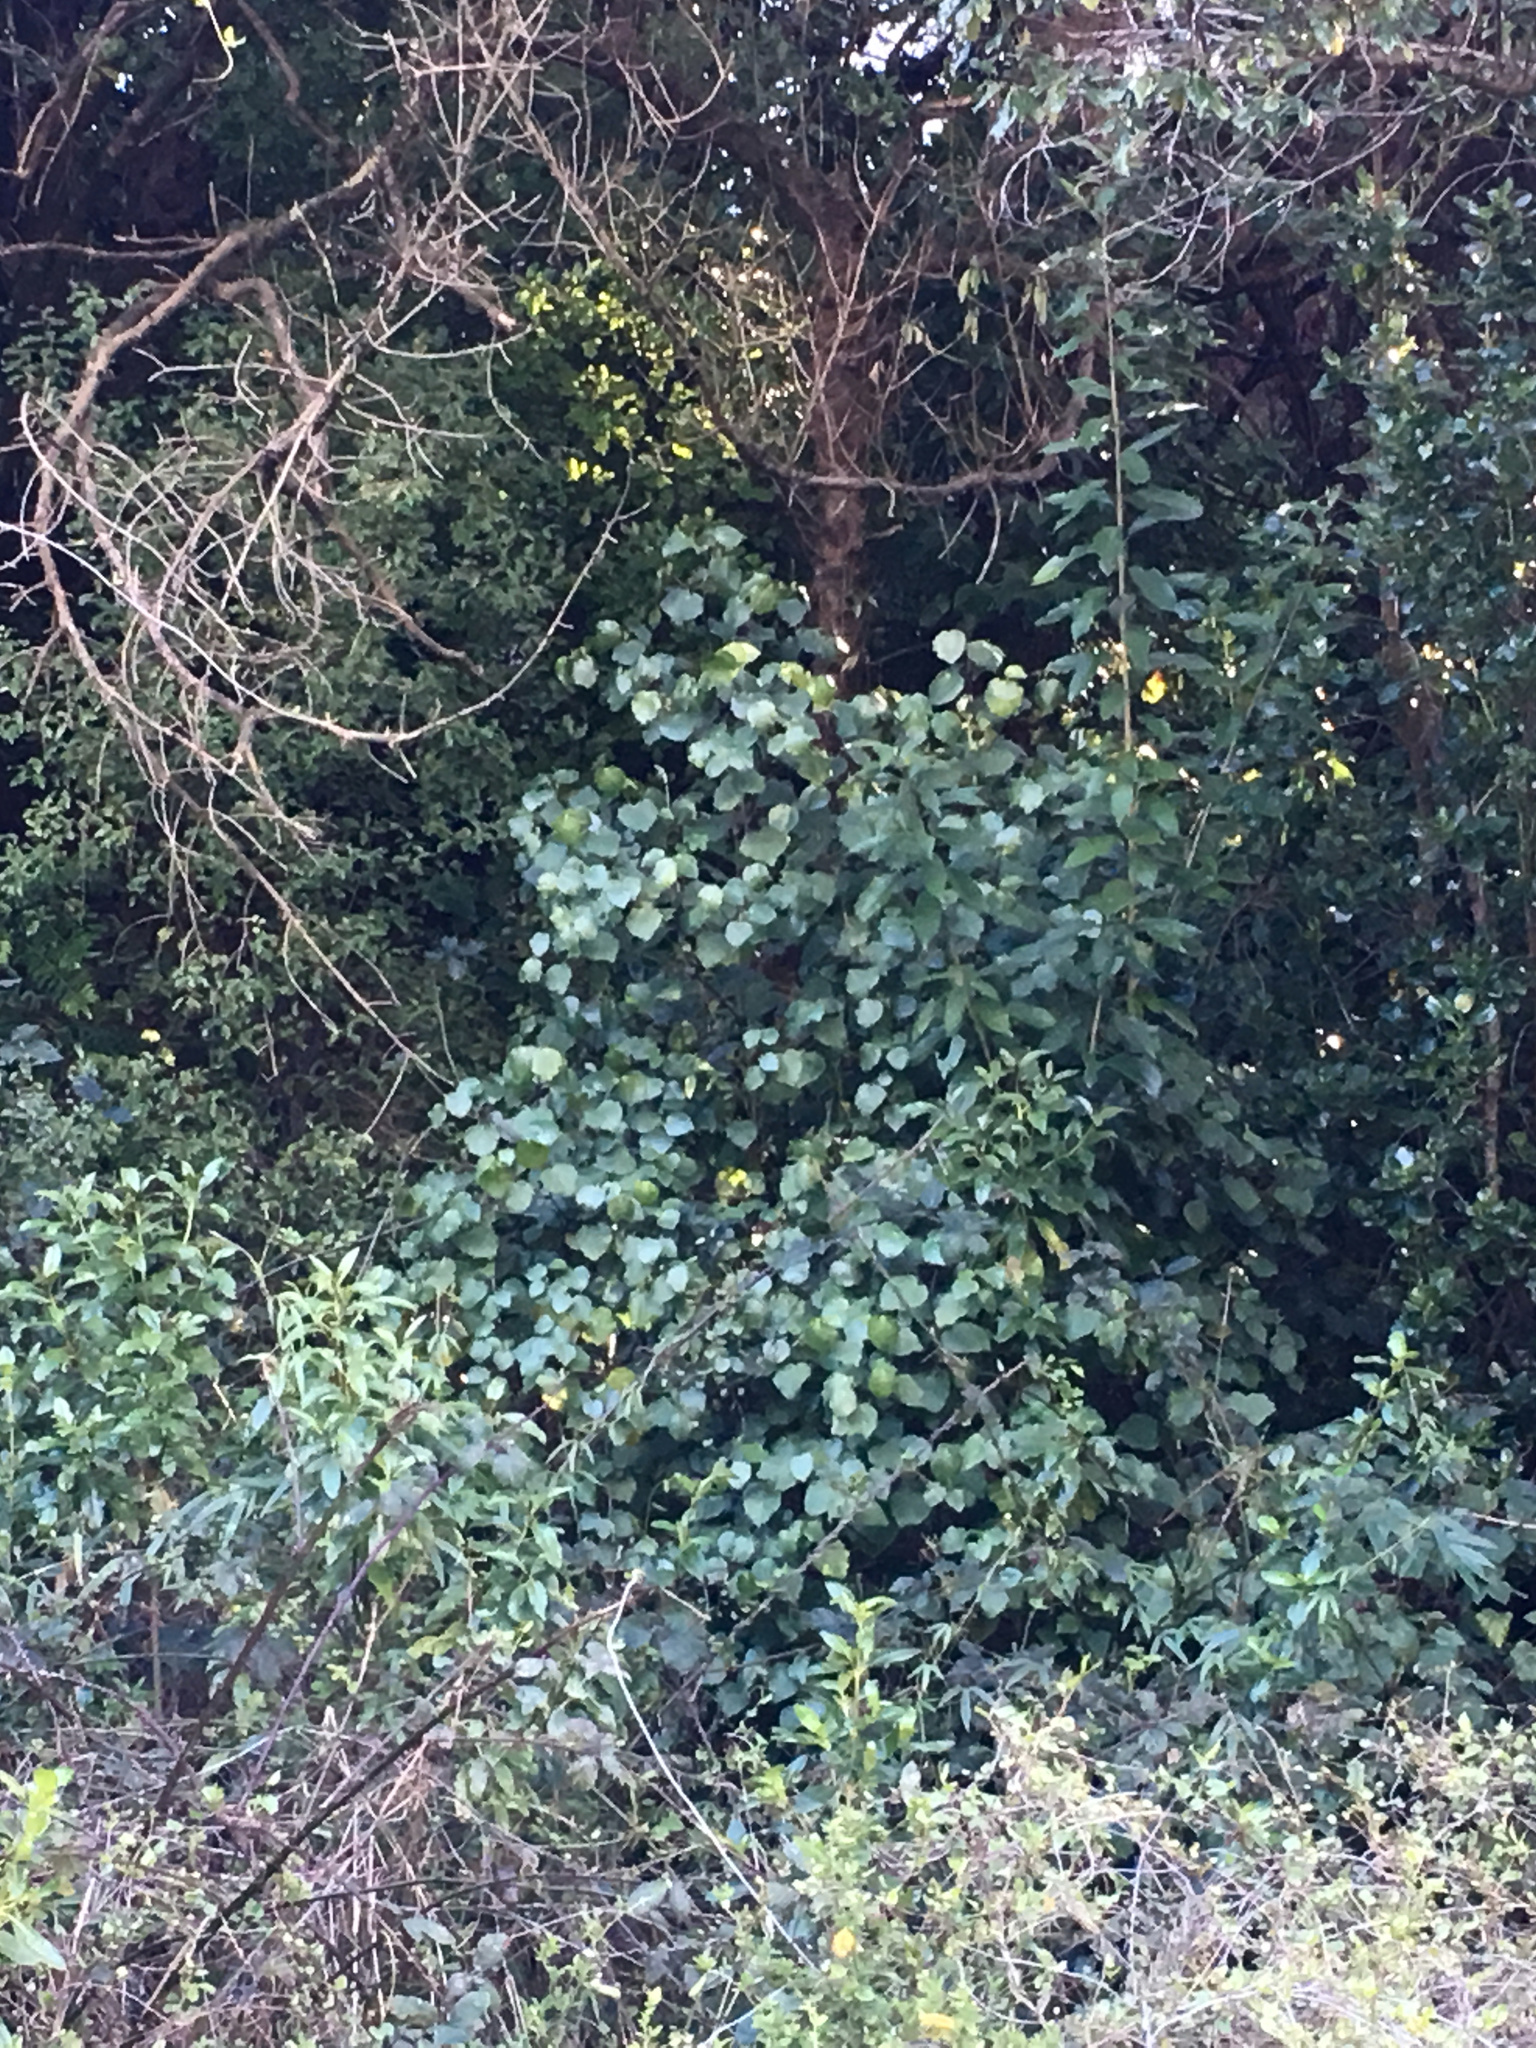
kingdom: Plantae
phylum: Tracheophyta
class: Magnoliopsida
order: Piperales
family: Piperaceae
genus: Macropiper
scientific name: Macropiper excelsum
